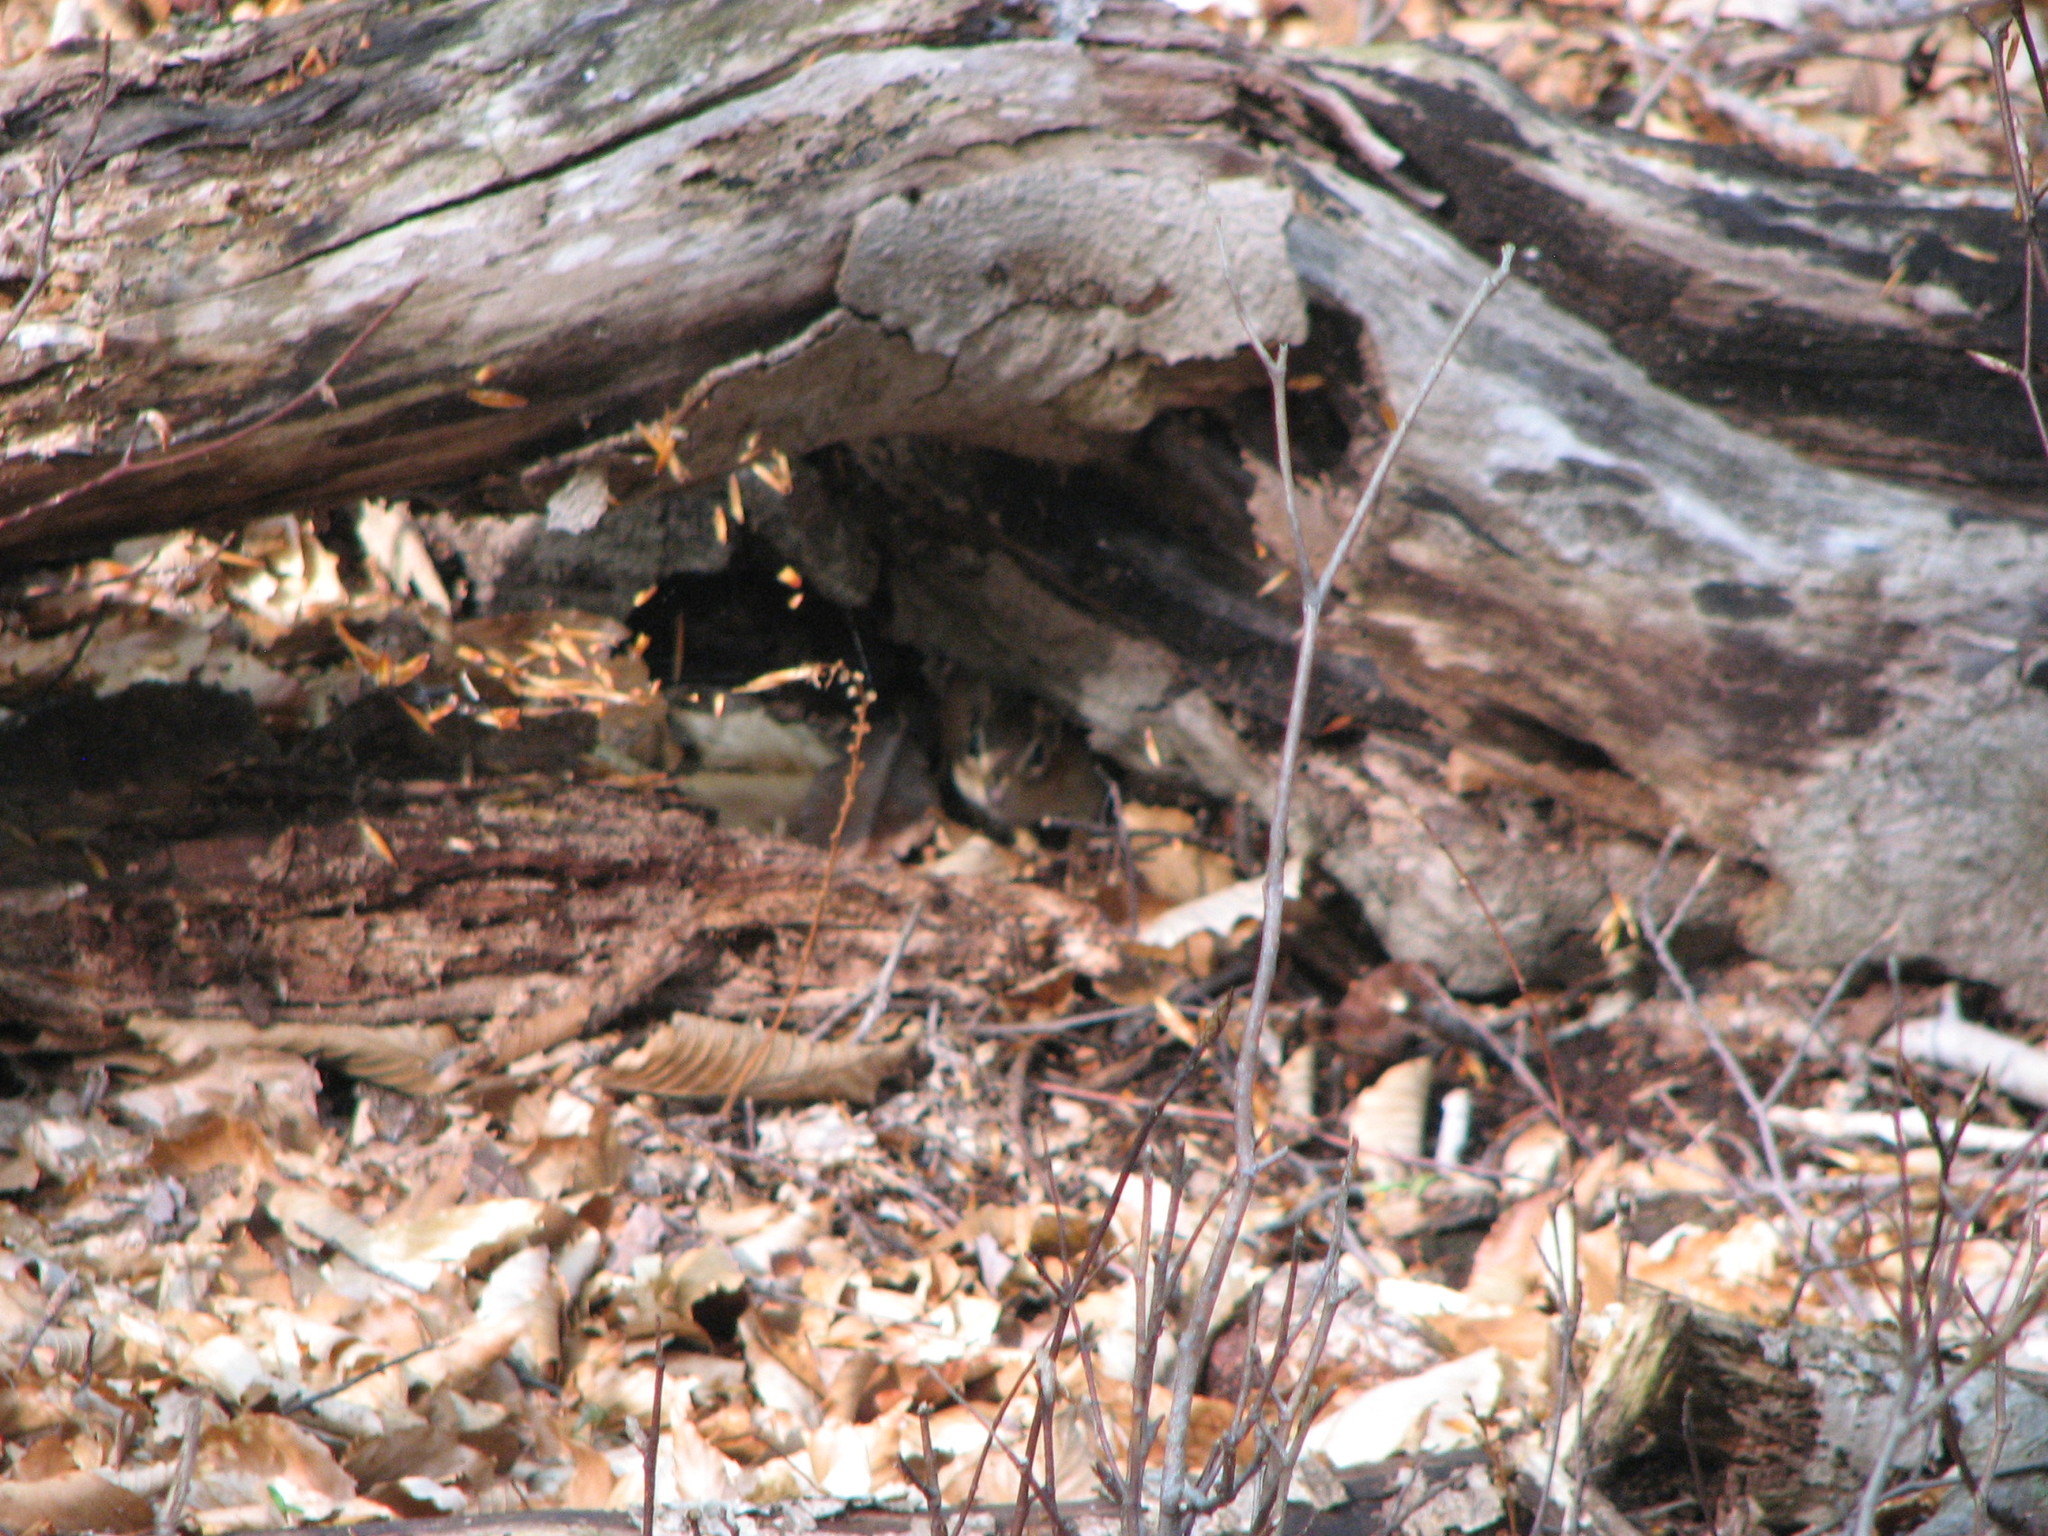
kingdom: Animalia
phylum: Chordata
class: Mammalia
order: Rodentia
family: Sciuridae
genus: Tamias
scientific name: Tamias striatus
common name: Eastern chipmunk
